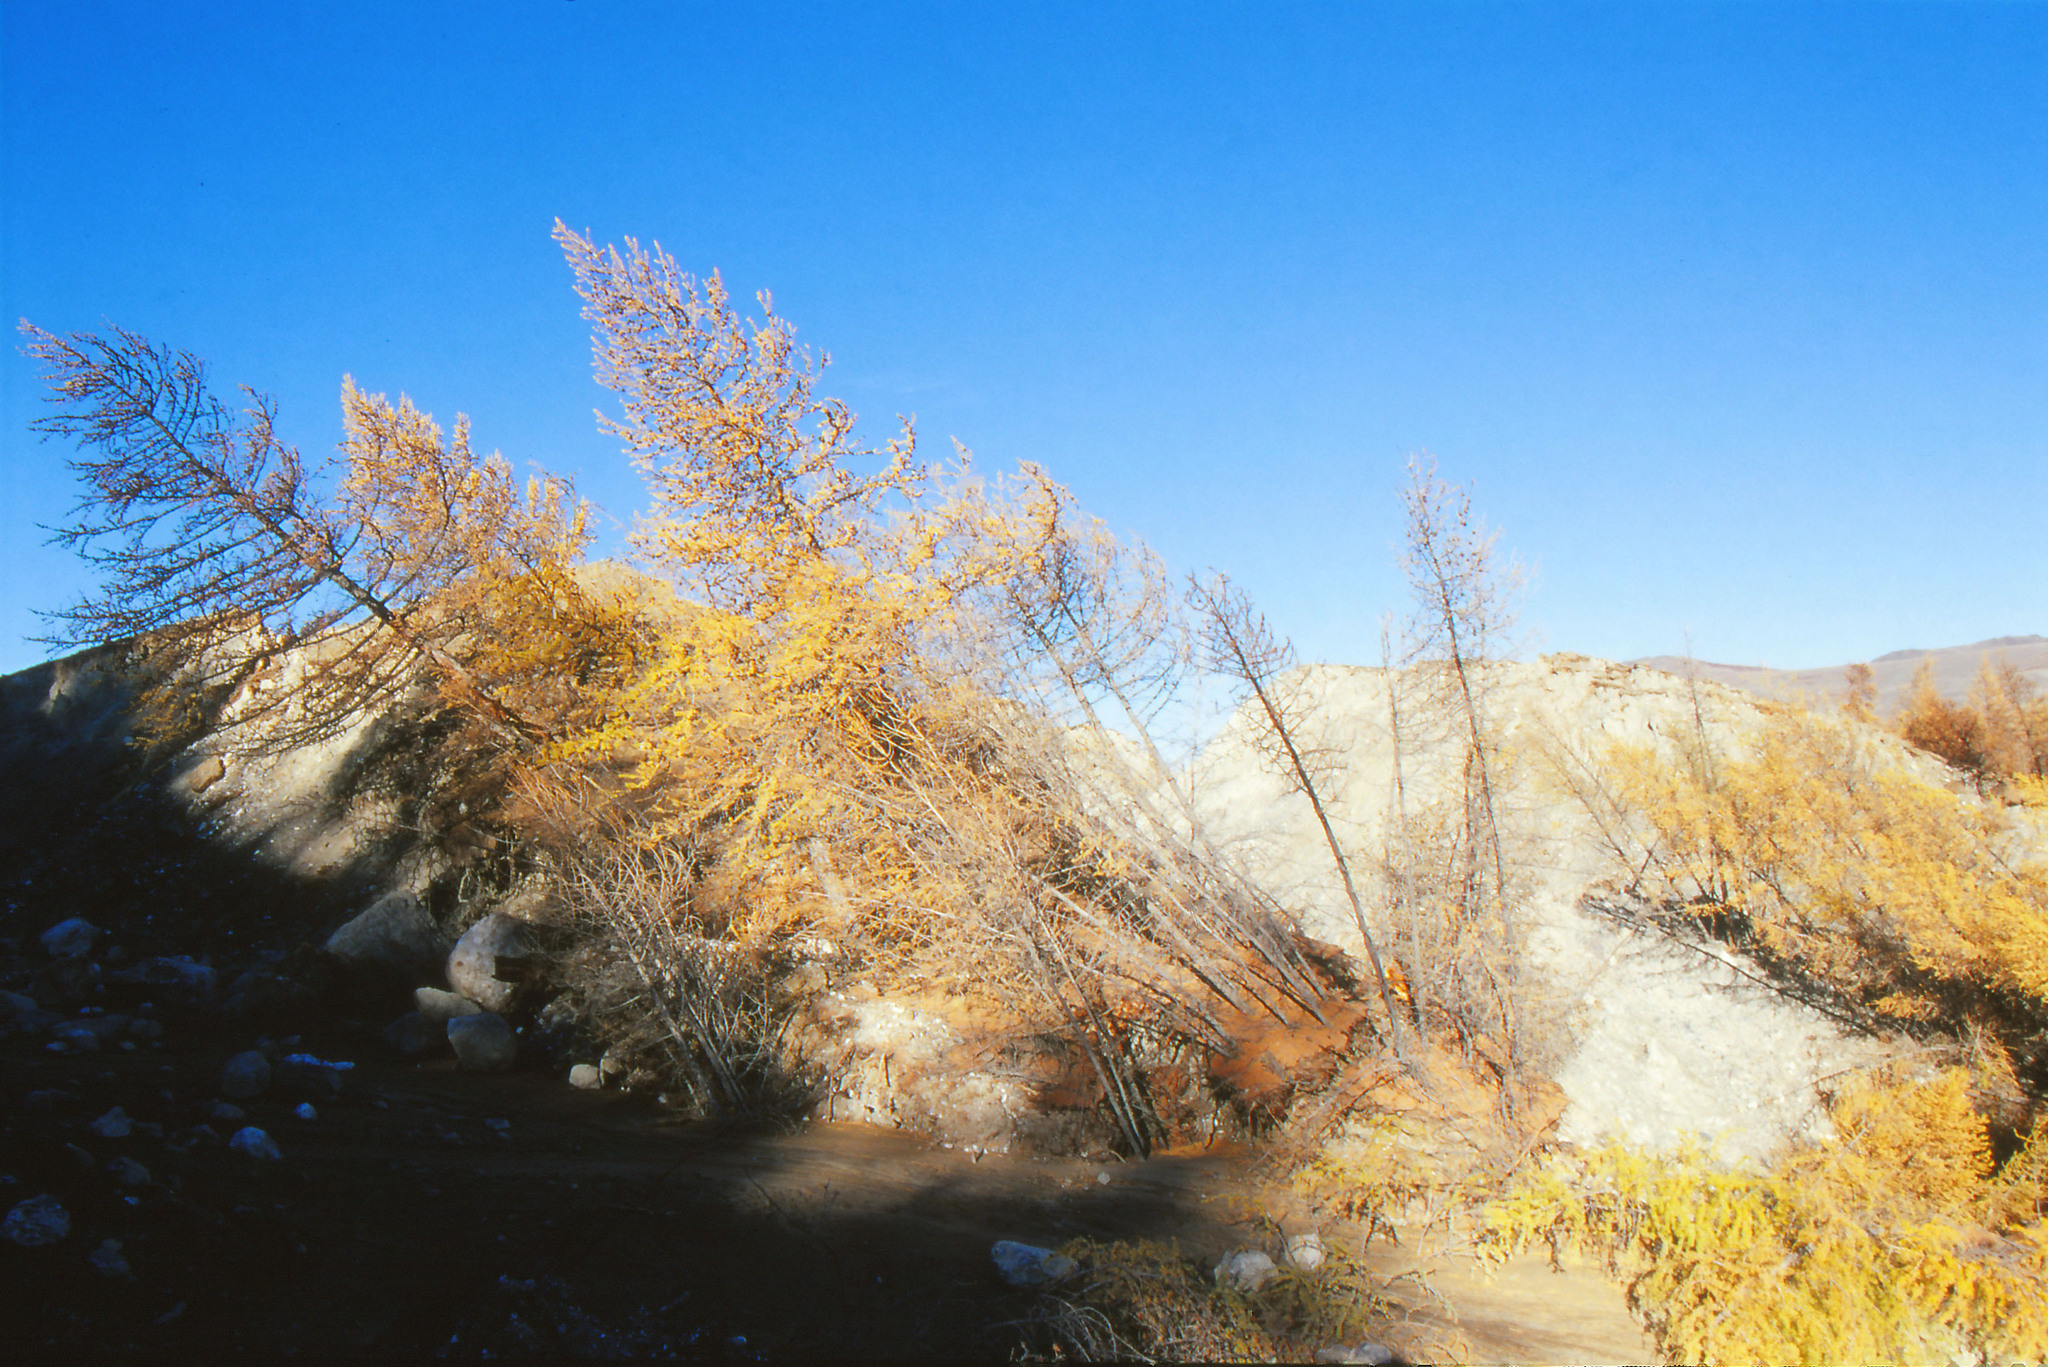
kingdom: Plantae
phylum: Tracheophyta
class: Pinopsida
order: Pinales
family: Pinaceae
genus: Larix
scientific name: Larix sibirica
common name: Siberian larch
